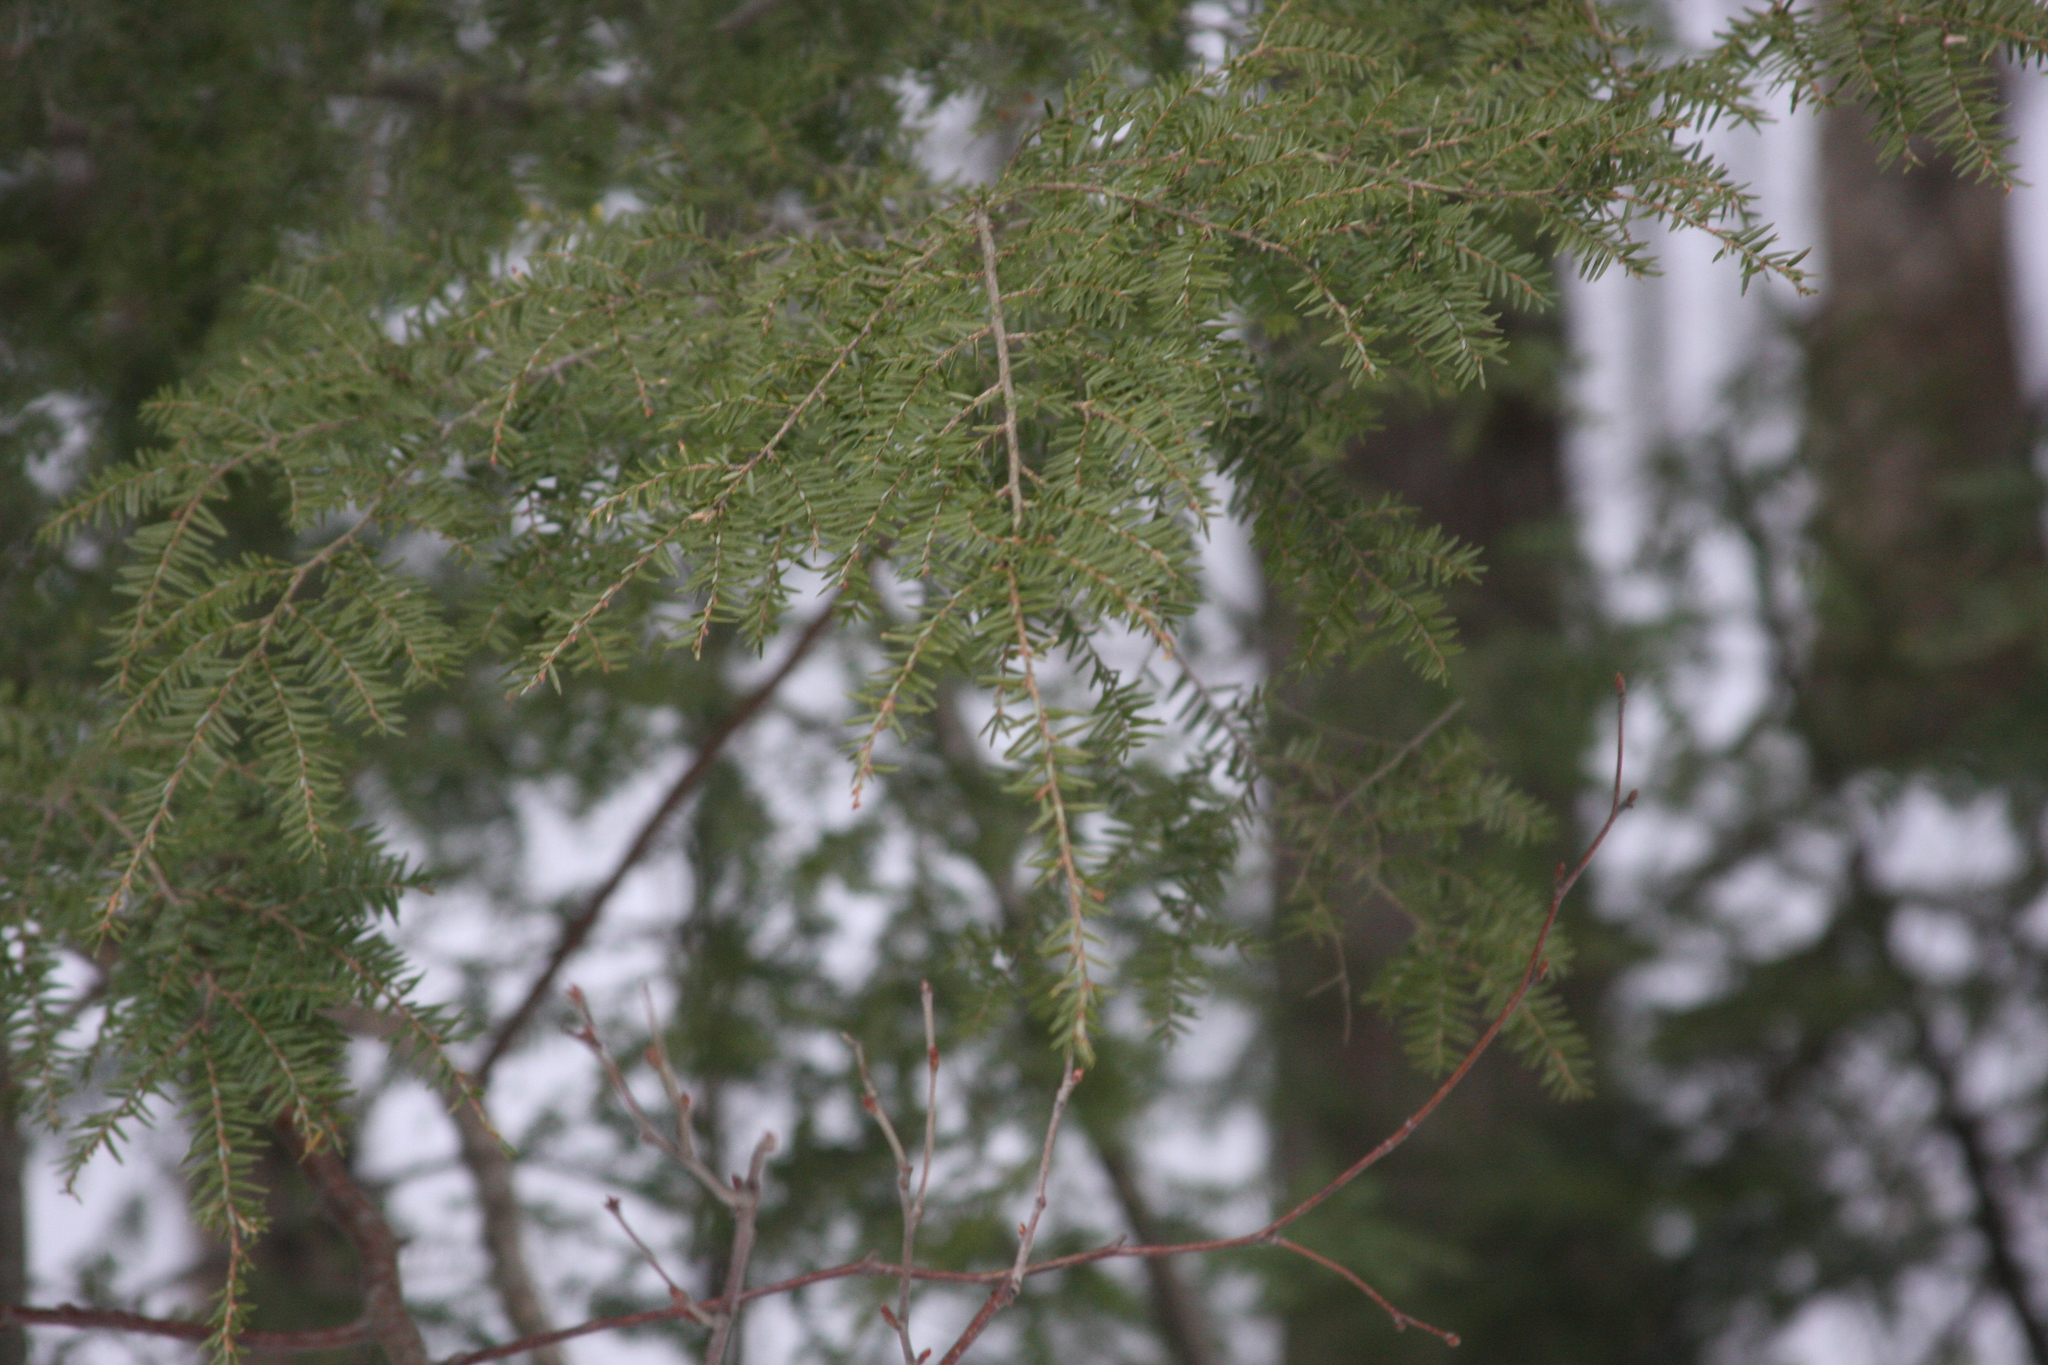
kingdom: Plantae
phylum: Tracheophyta
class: Pinopsida
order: Pinales
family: Pinaceae
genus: Tsuga
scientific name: Tsuga canadensis
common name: Eastern hemlock
